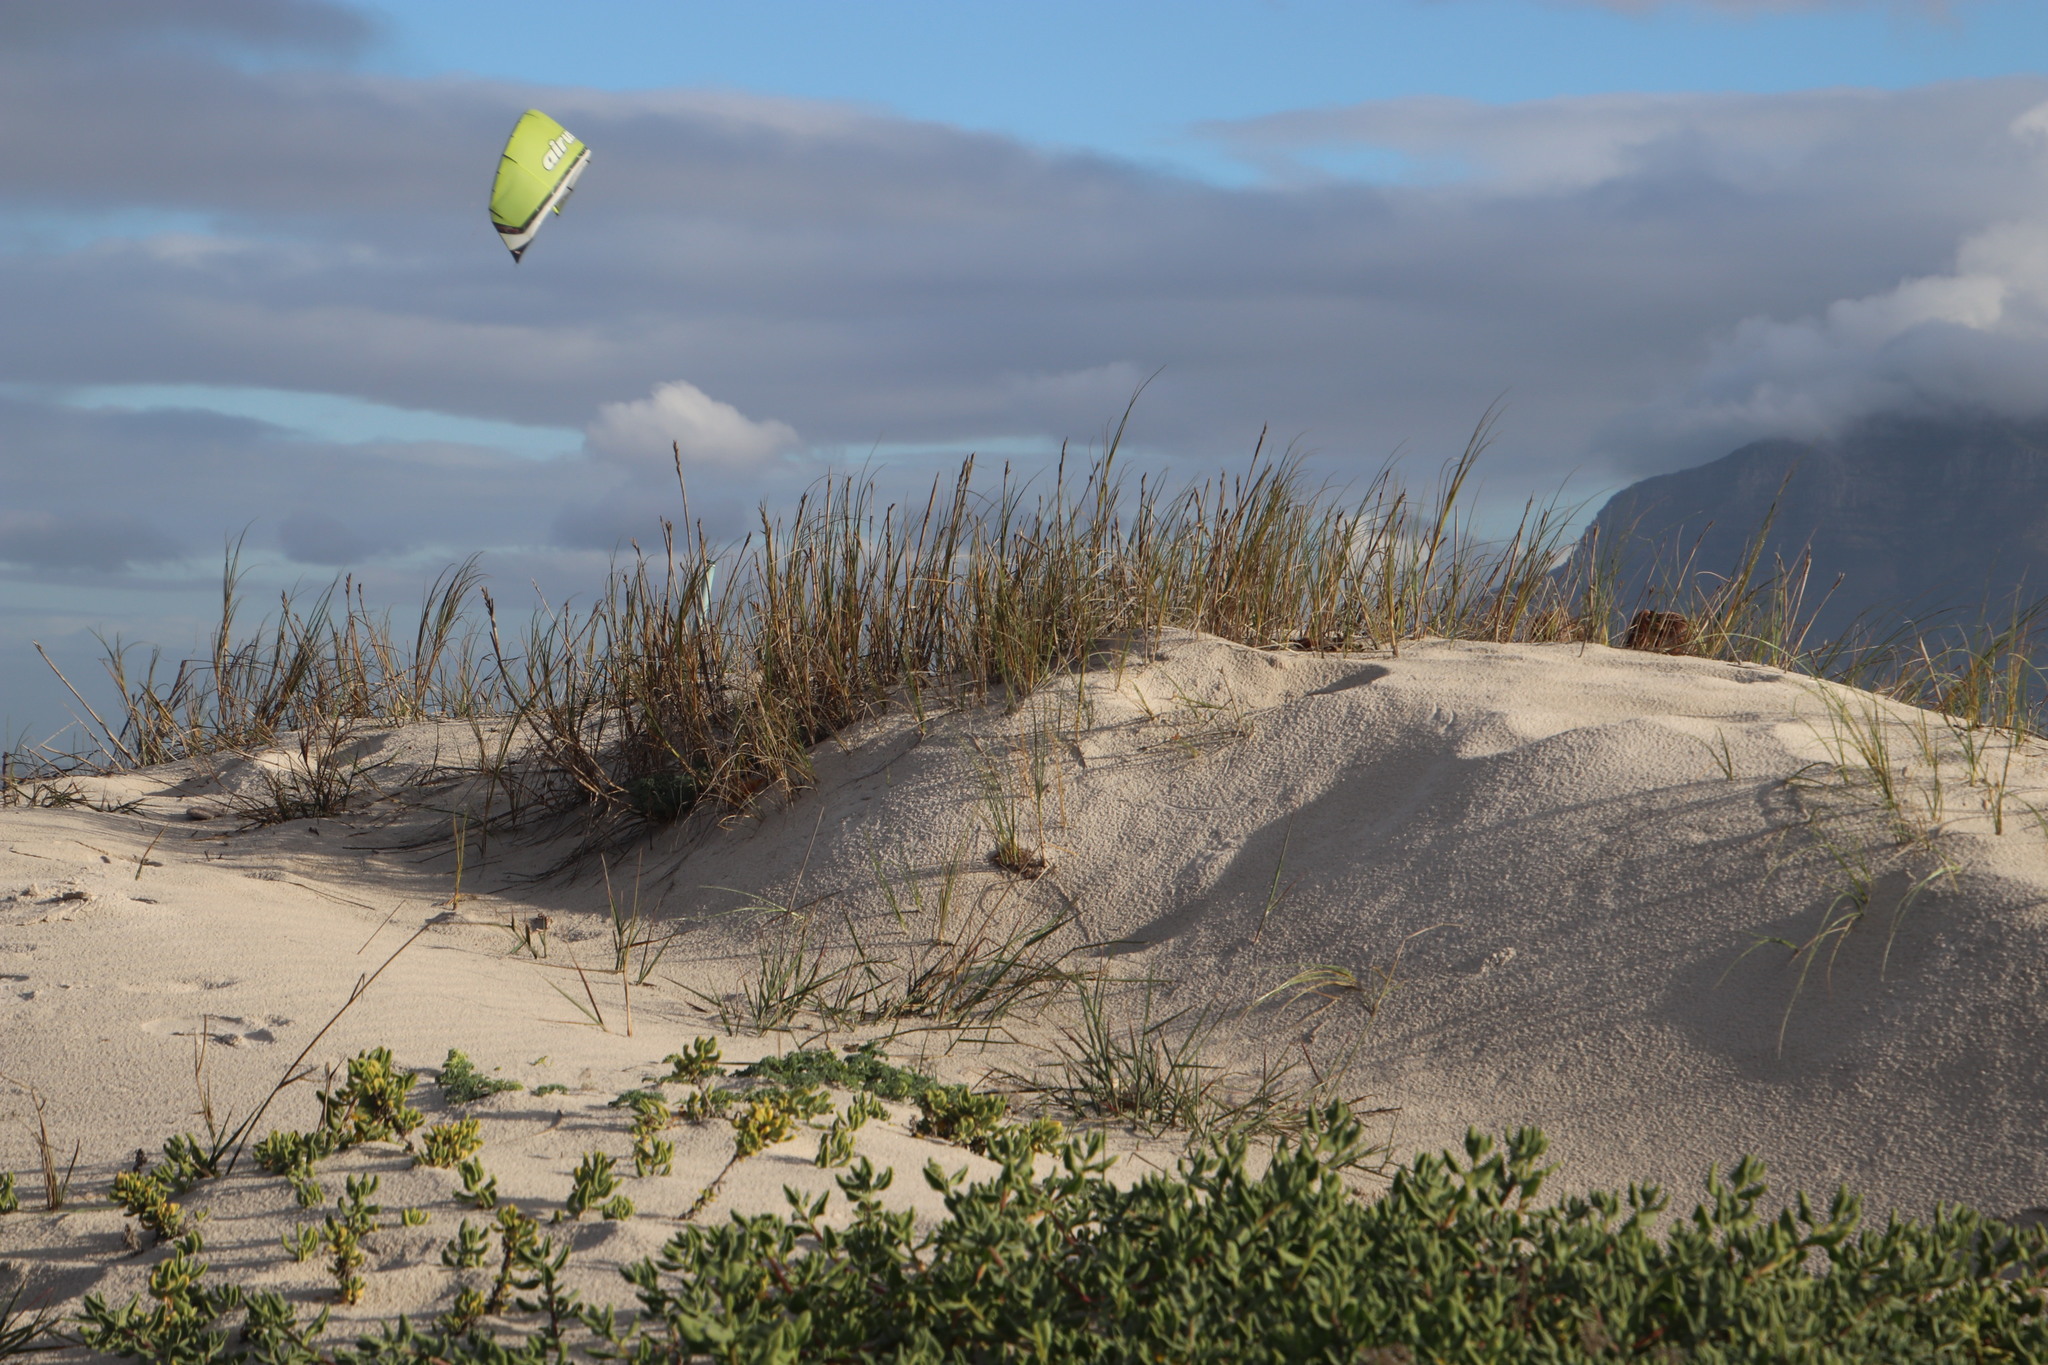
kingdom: Plantae
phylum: Tracheophyta
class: Liliopsida
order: Poales
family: Poaceae
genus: Thinopyrum
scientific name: Thinopyrum distichum
